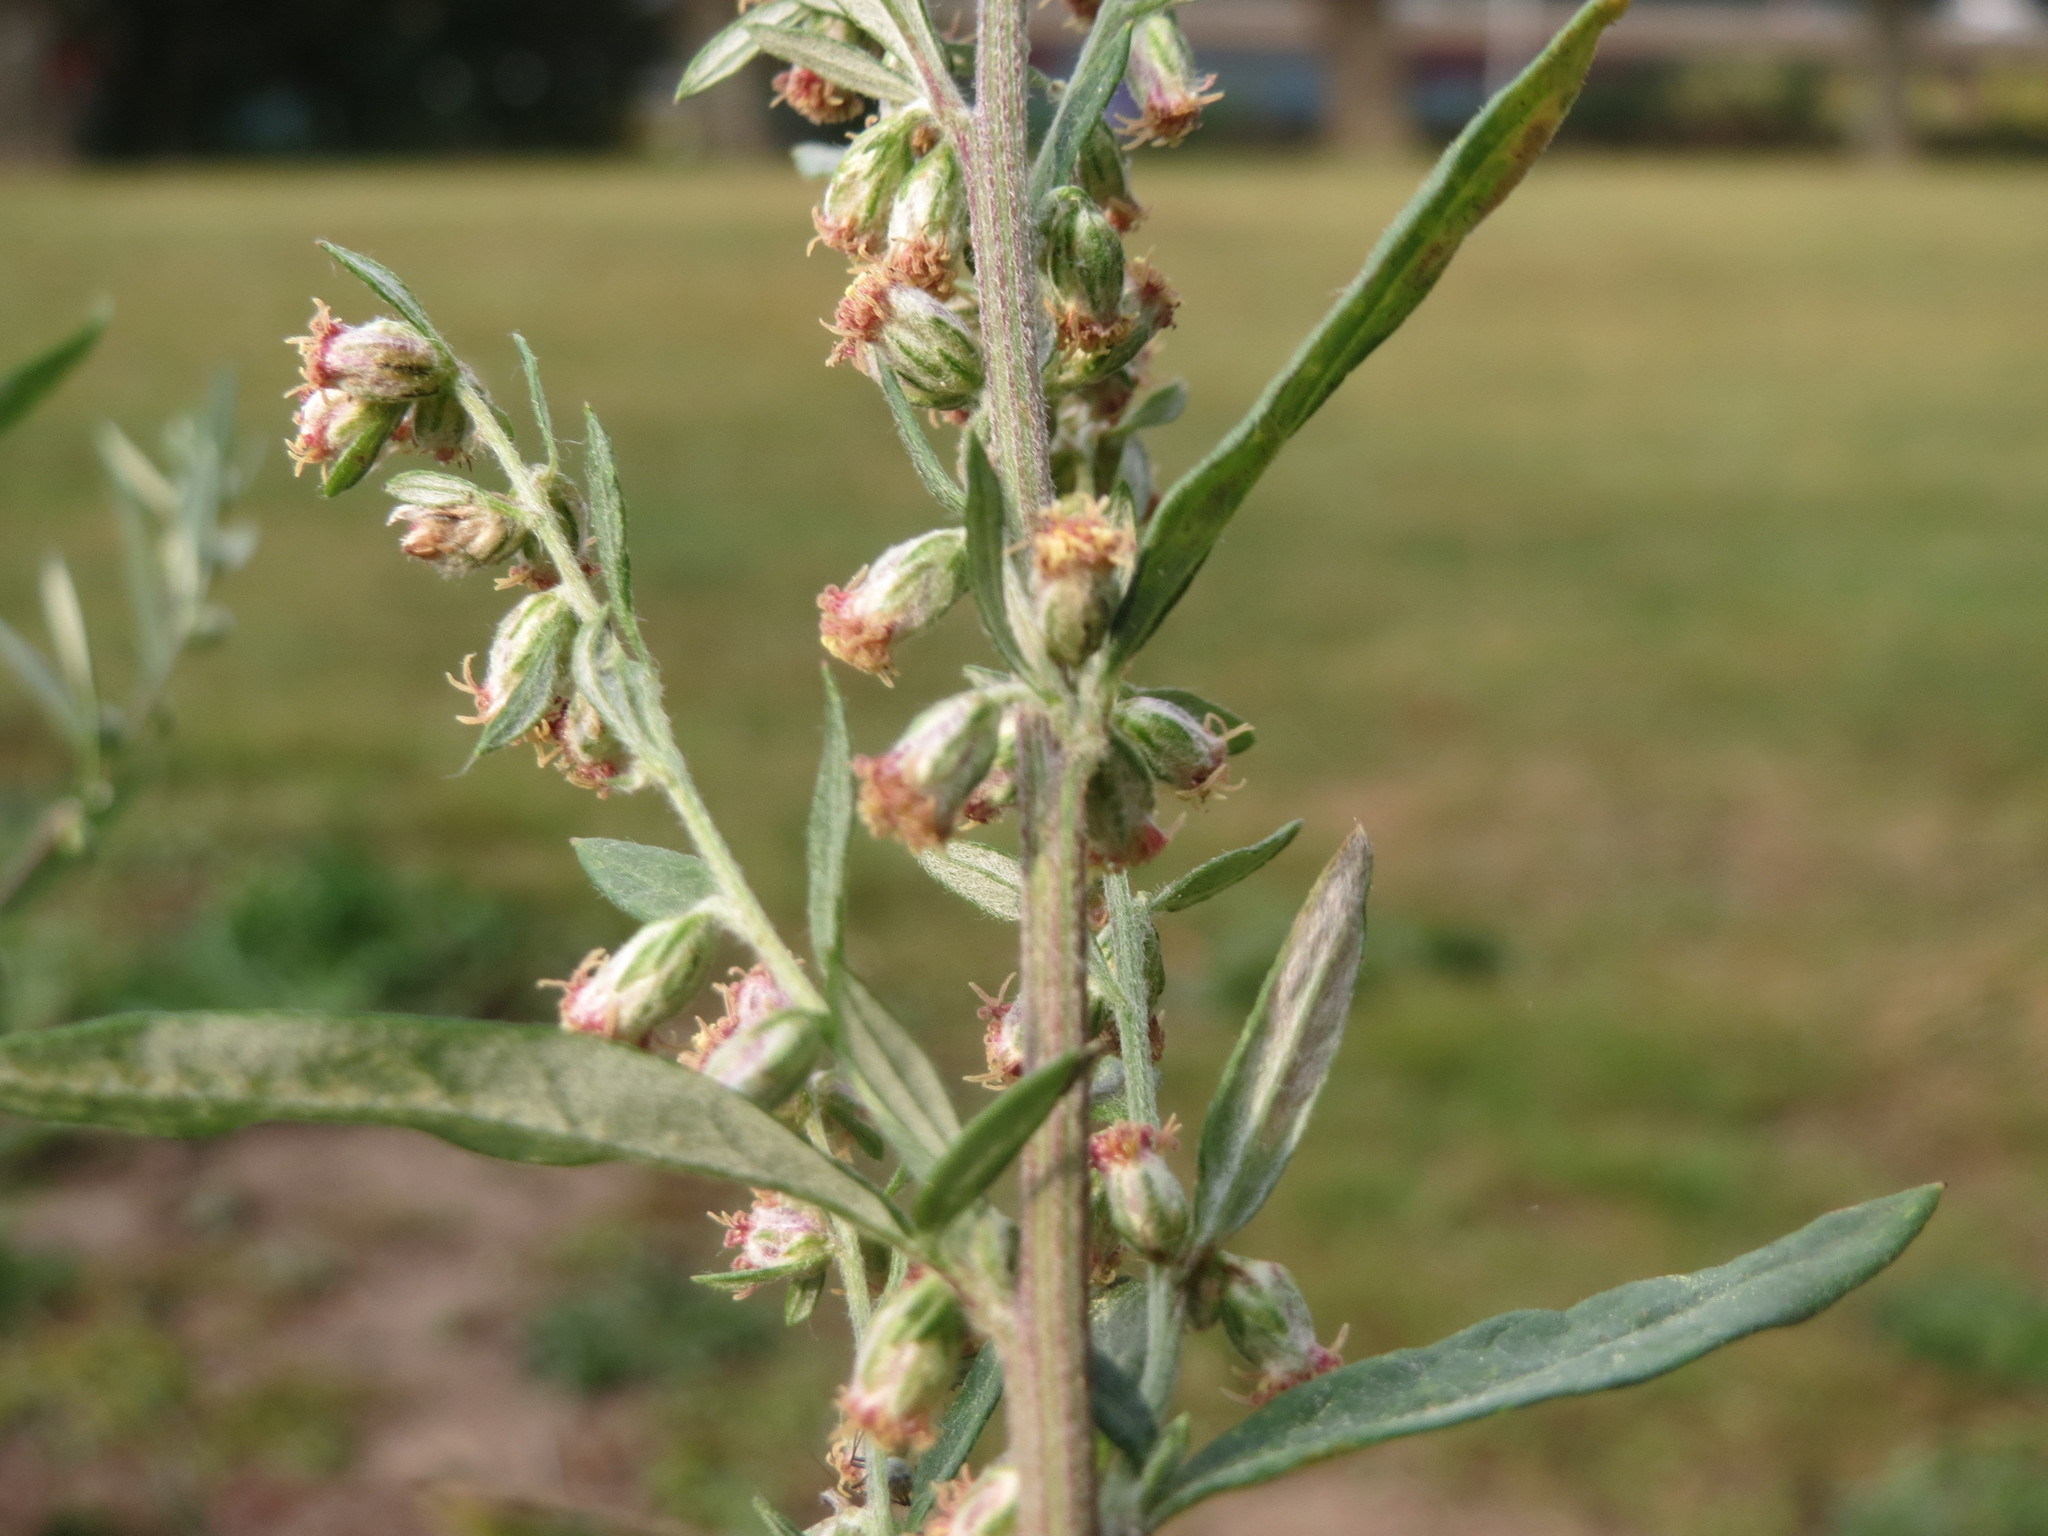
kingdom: Plantae
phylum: Tracheophyta
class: Magnoliopsida
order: Asterales
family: Asteraceae
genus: Artemisia
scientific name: Artemisia vulgaris
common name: Mugwort
